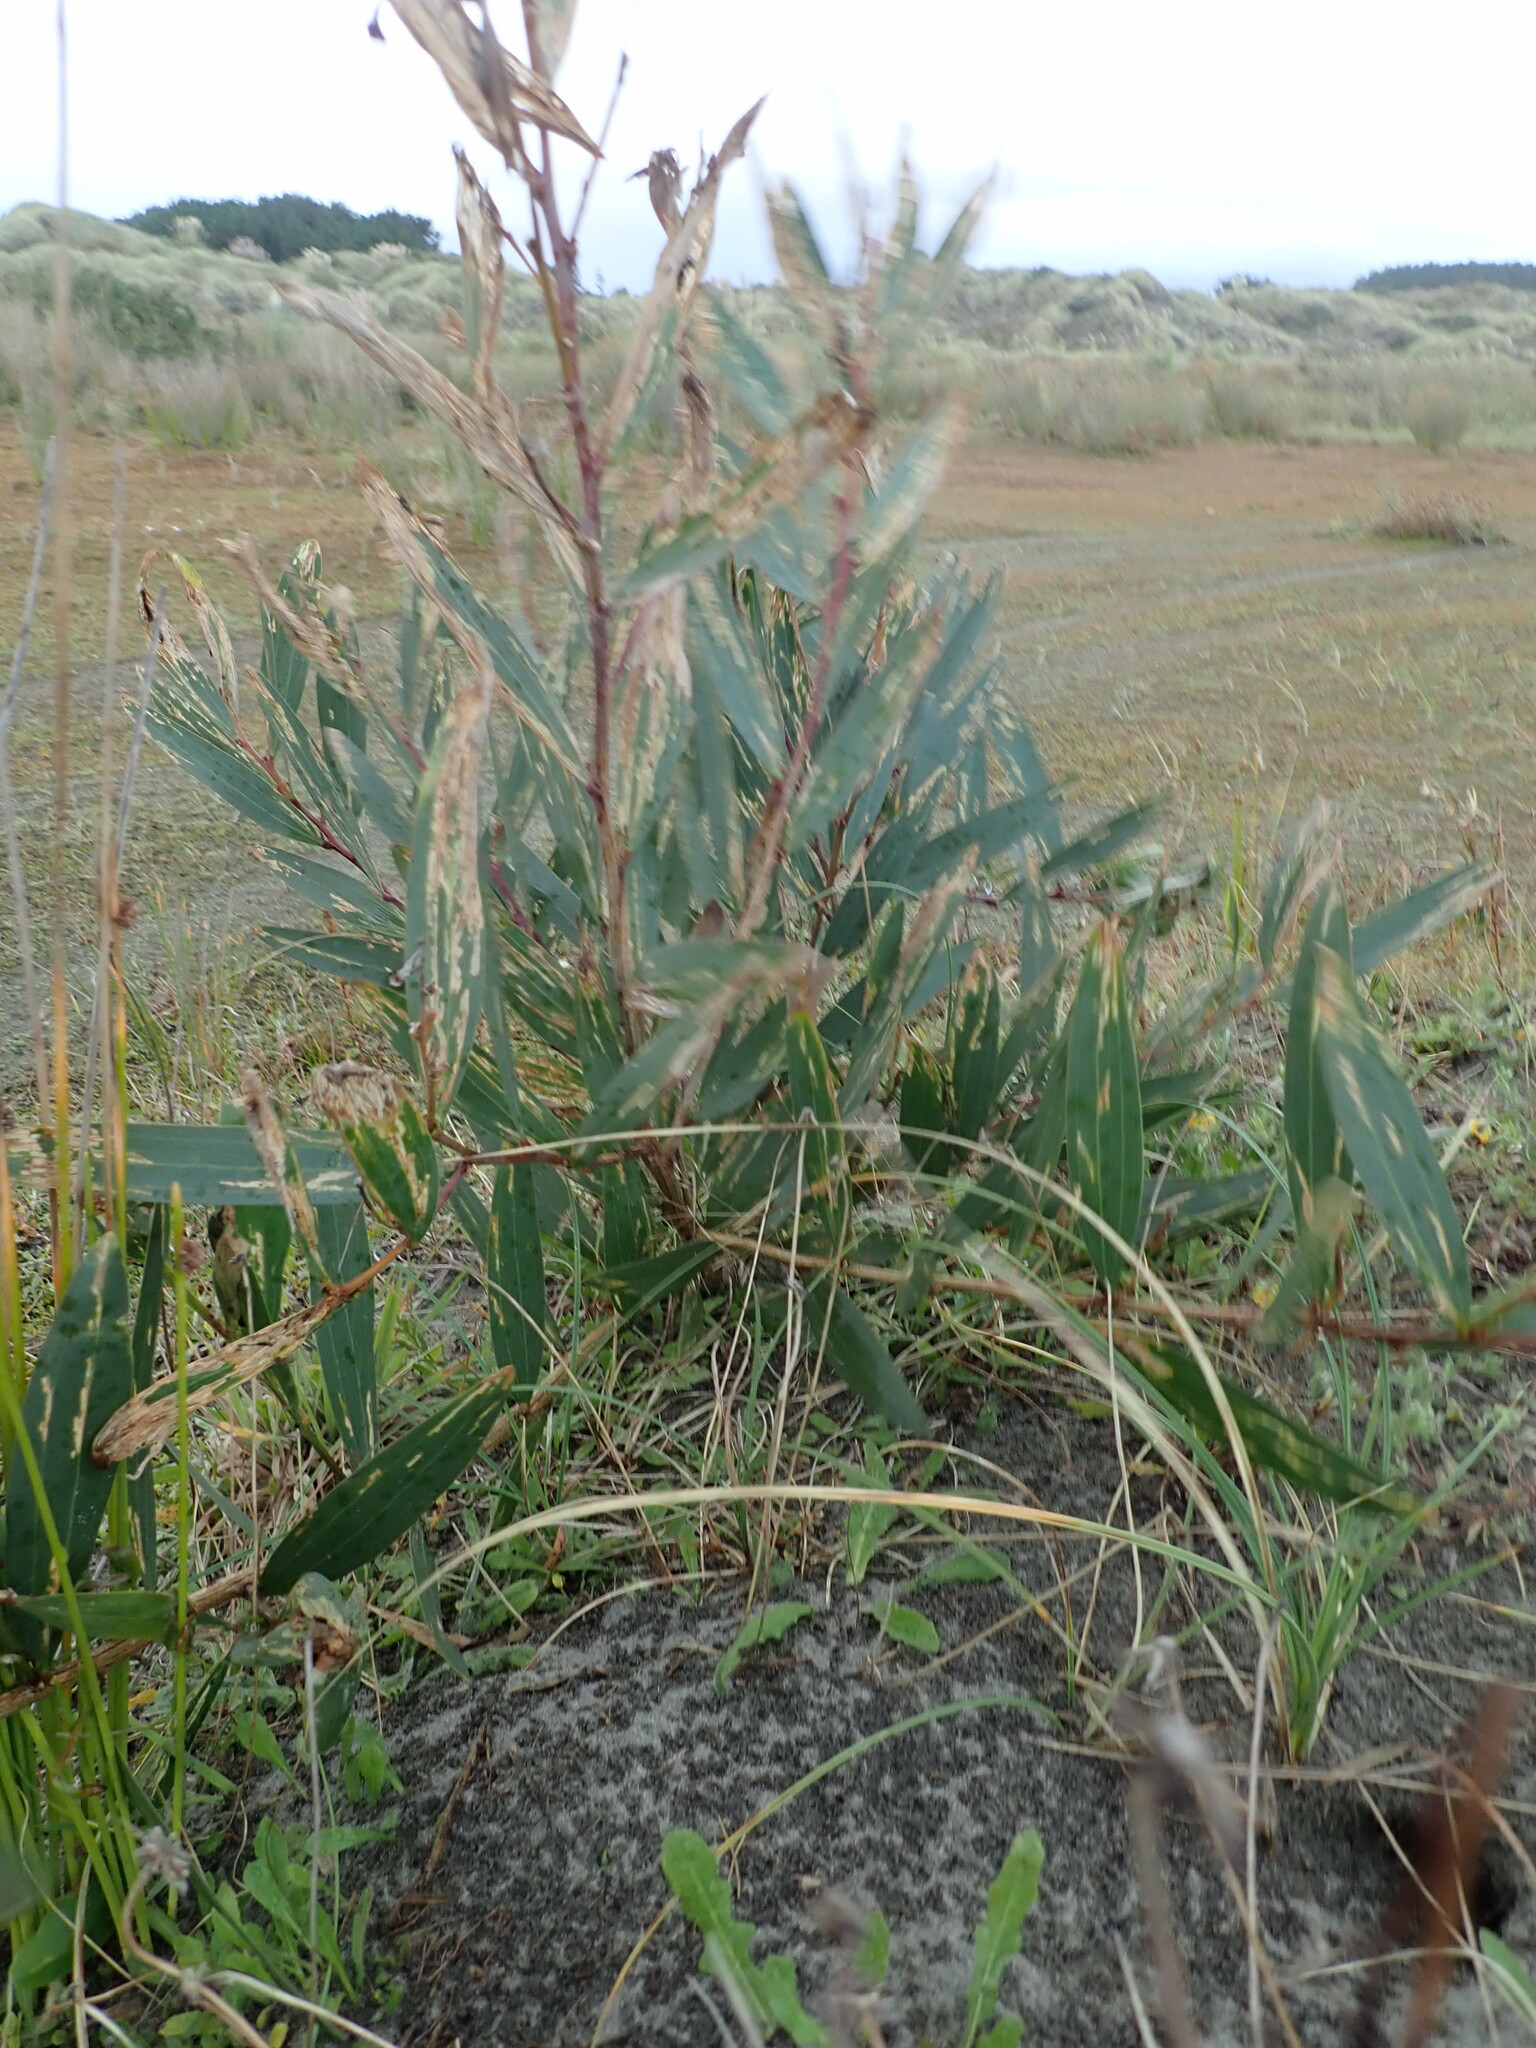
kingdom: Plantae
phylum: Tracheophyta
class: Magnoliopsida
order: Fabales
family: Fabaceae
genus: Acacia
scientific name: Acacia longifolia
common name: Sydney golden wattle
